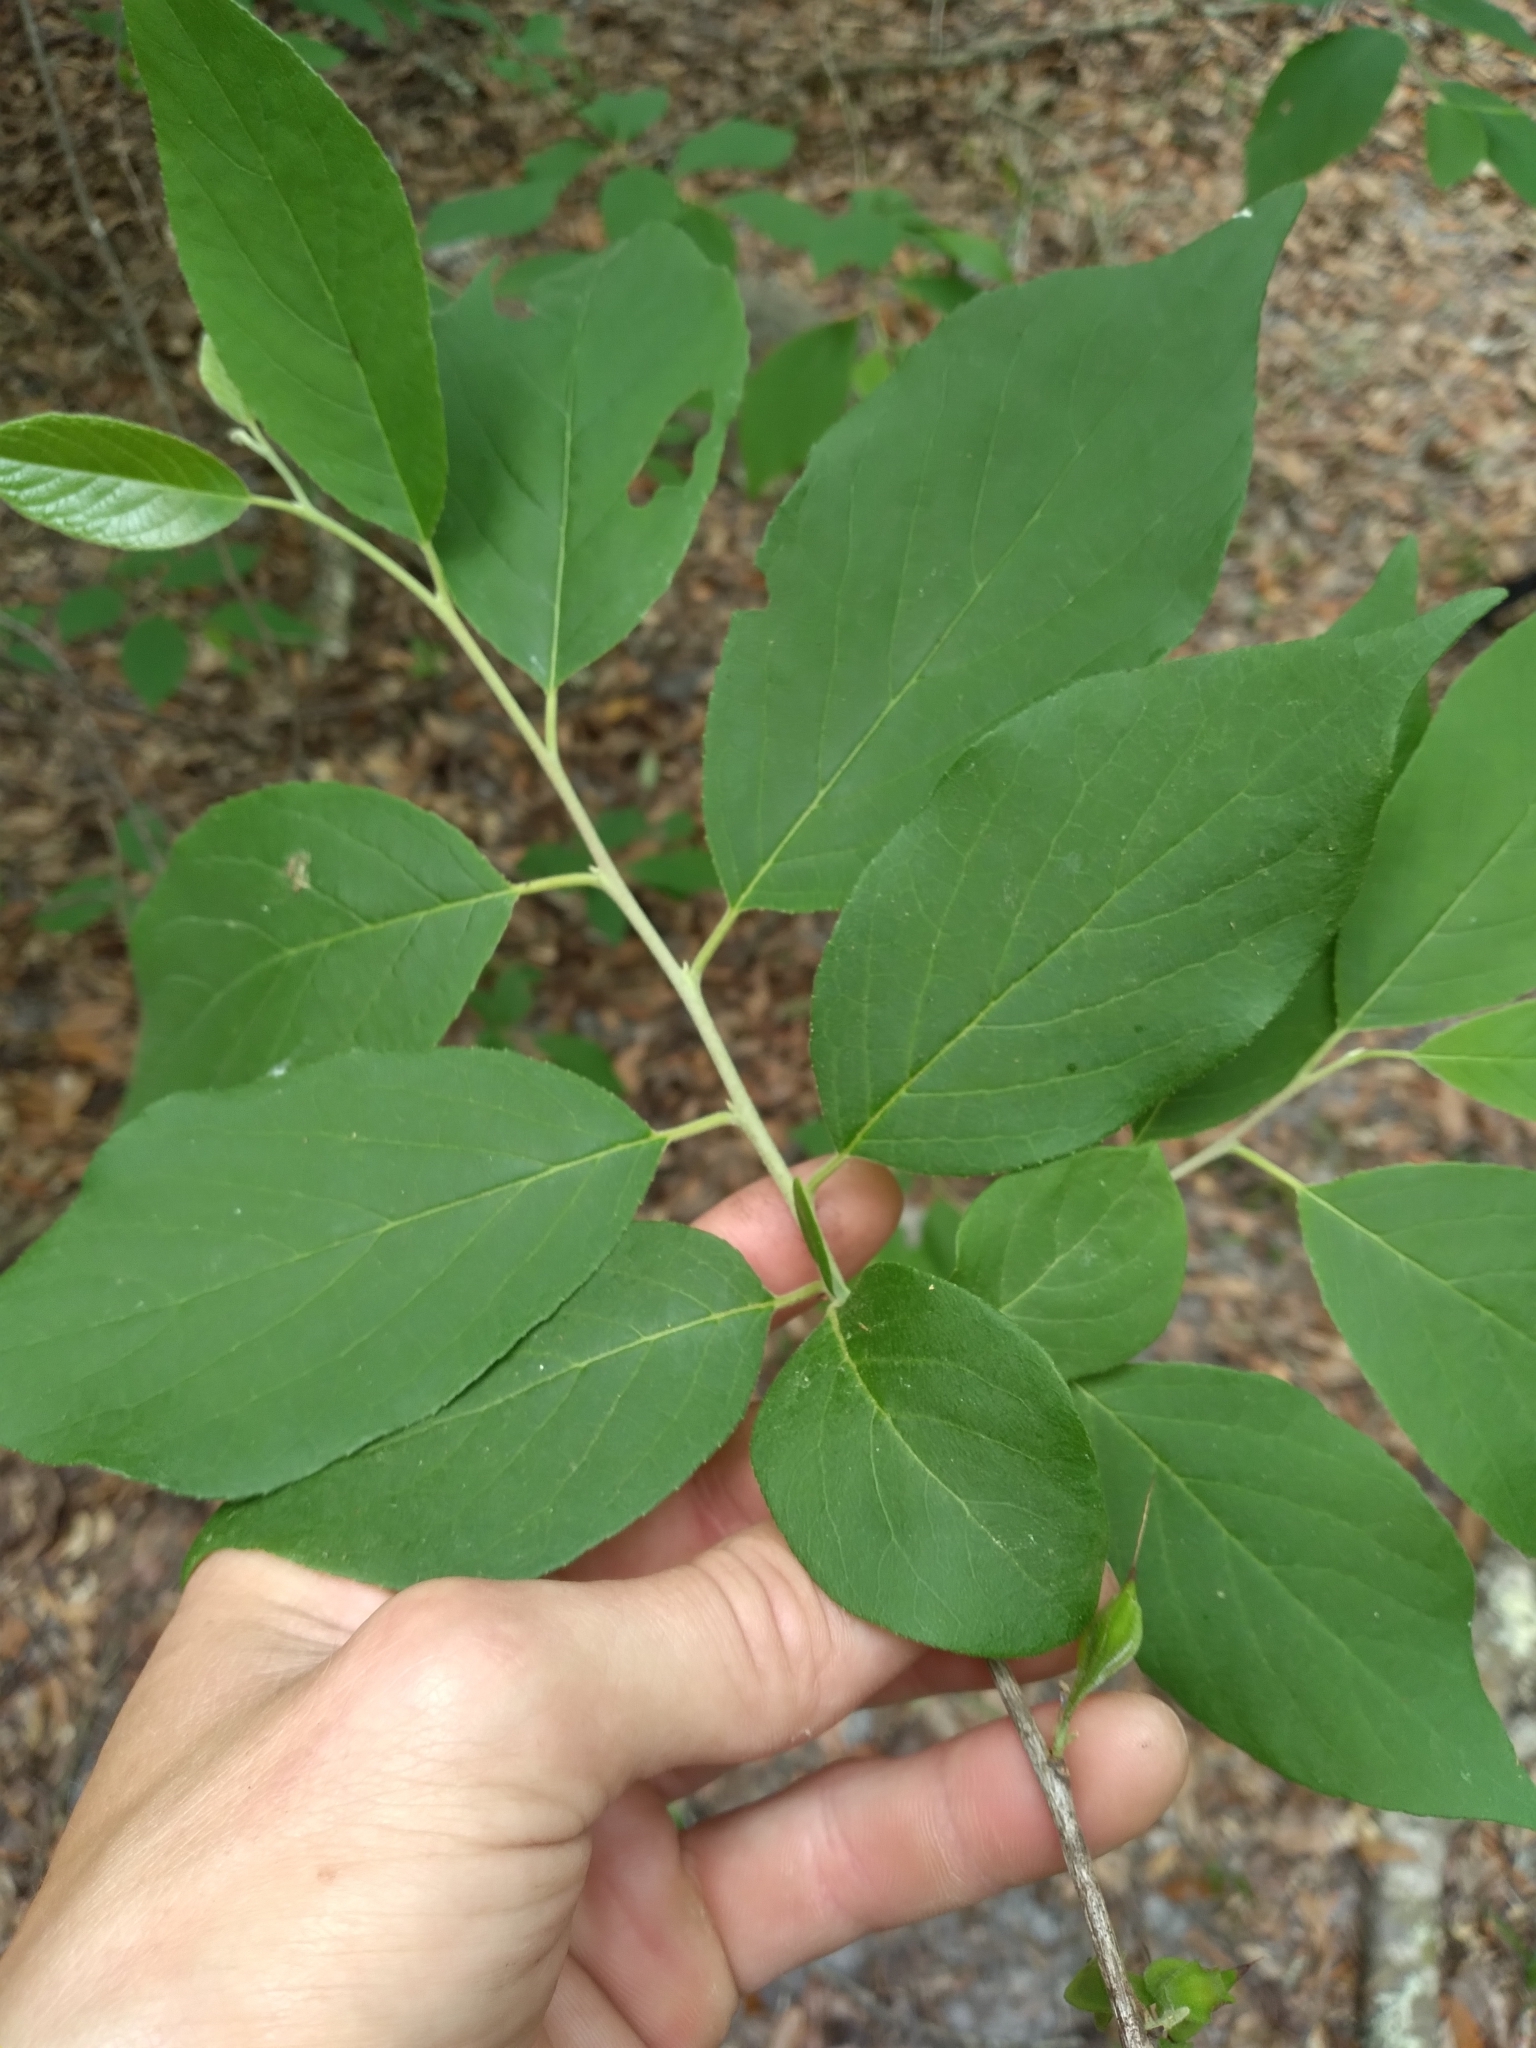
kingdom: Plantae
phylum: Tracheophyta
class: Magnoliopsida
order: Ericales
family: Styracaceae
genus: Halesia
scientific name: Halesia carolina
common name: Carolina silverbell
